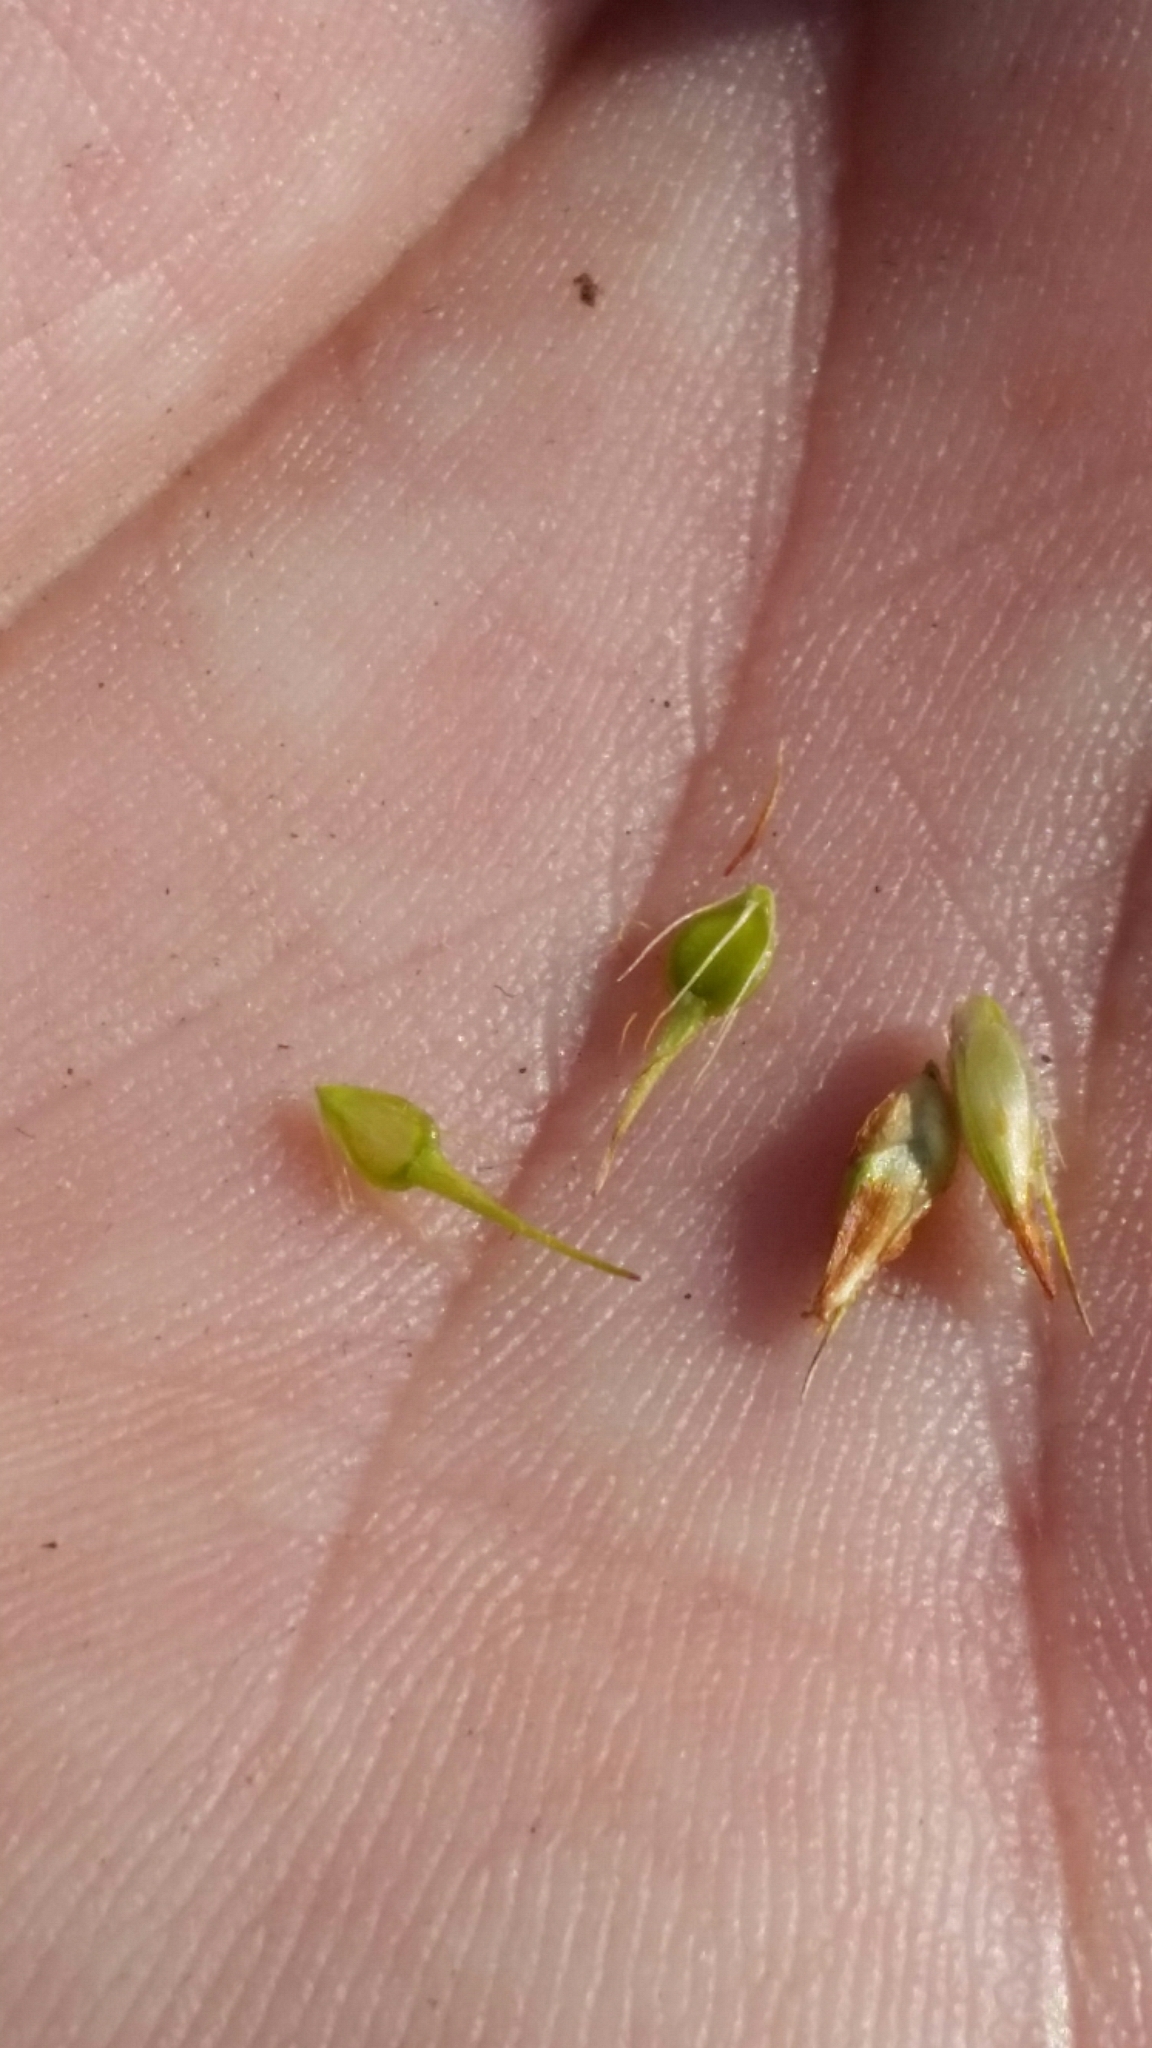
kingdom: Plantae
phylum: Tracheophyta
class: Liliopsida
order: Poales
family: Cyperaceae
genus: Rhynchospora
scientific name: Rhynchospora tracyi
